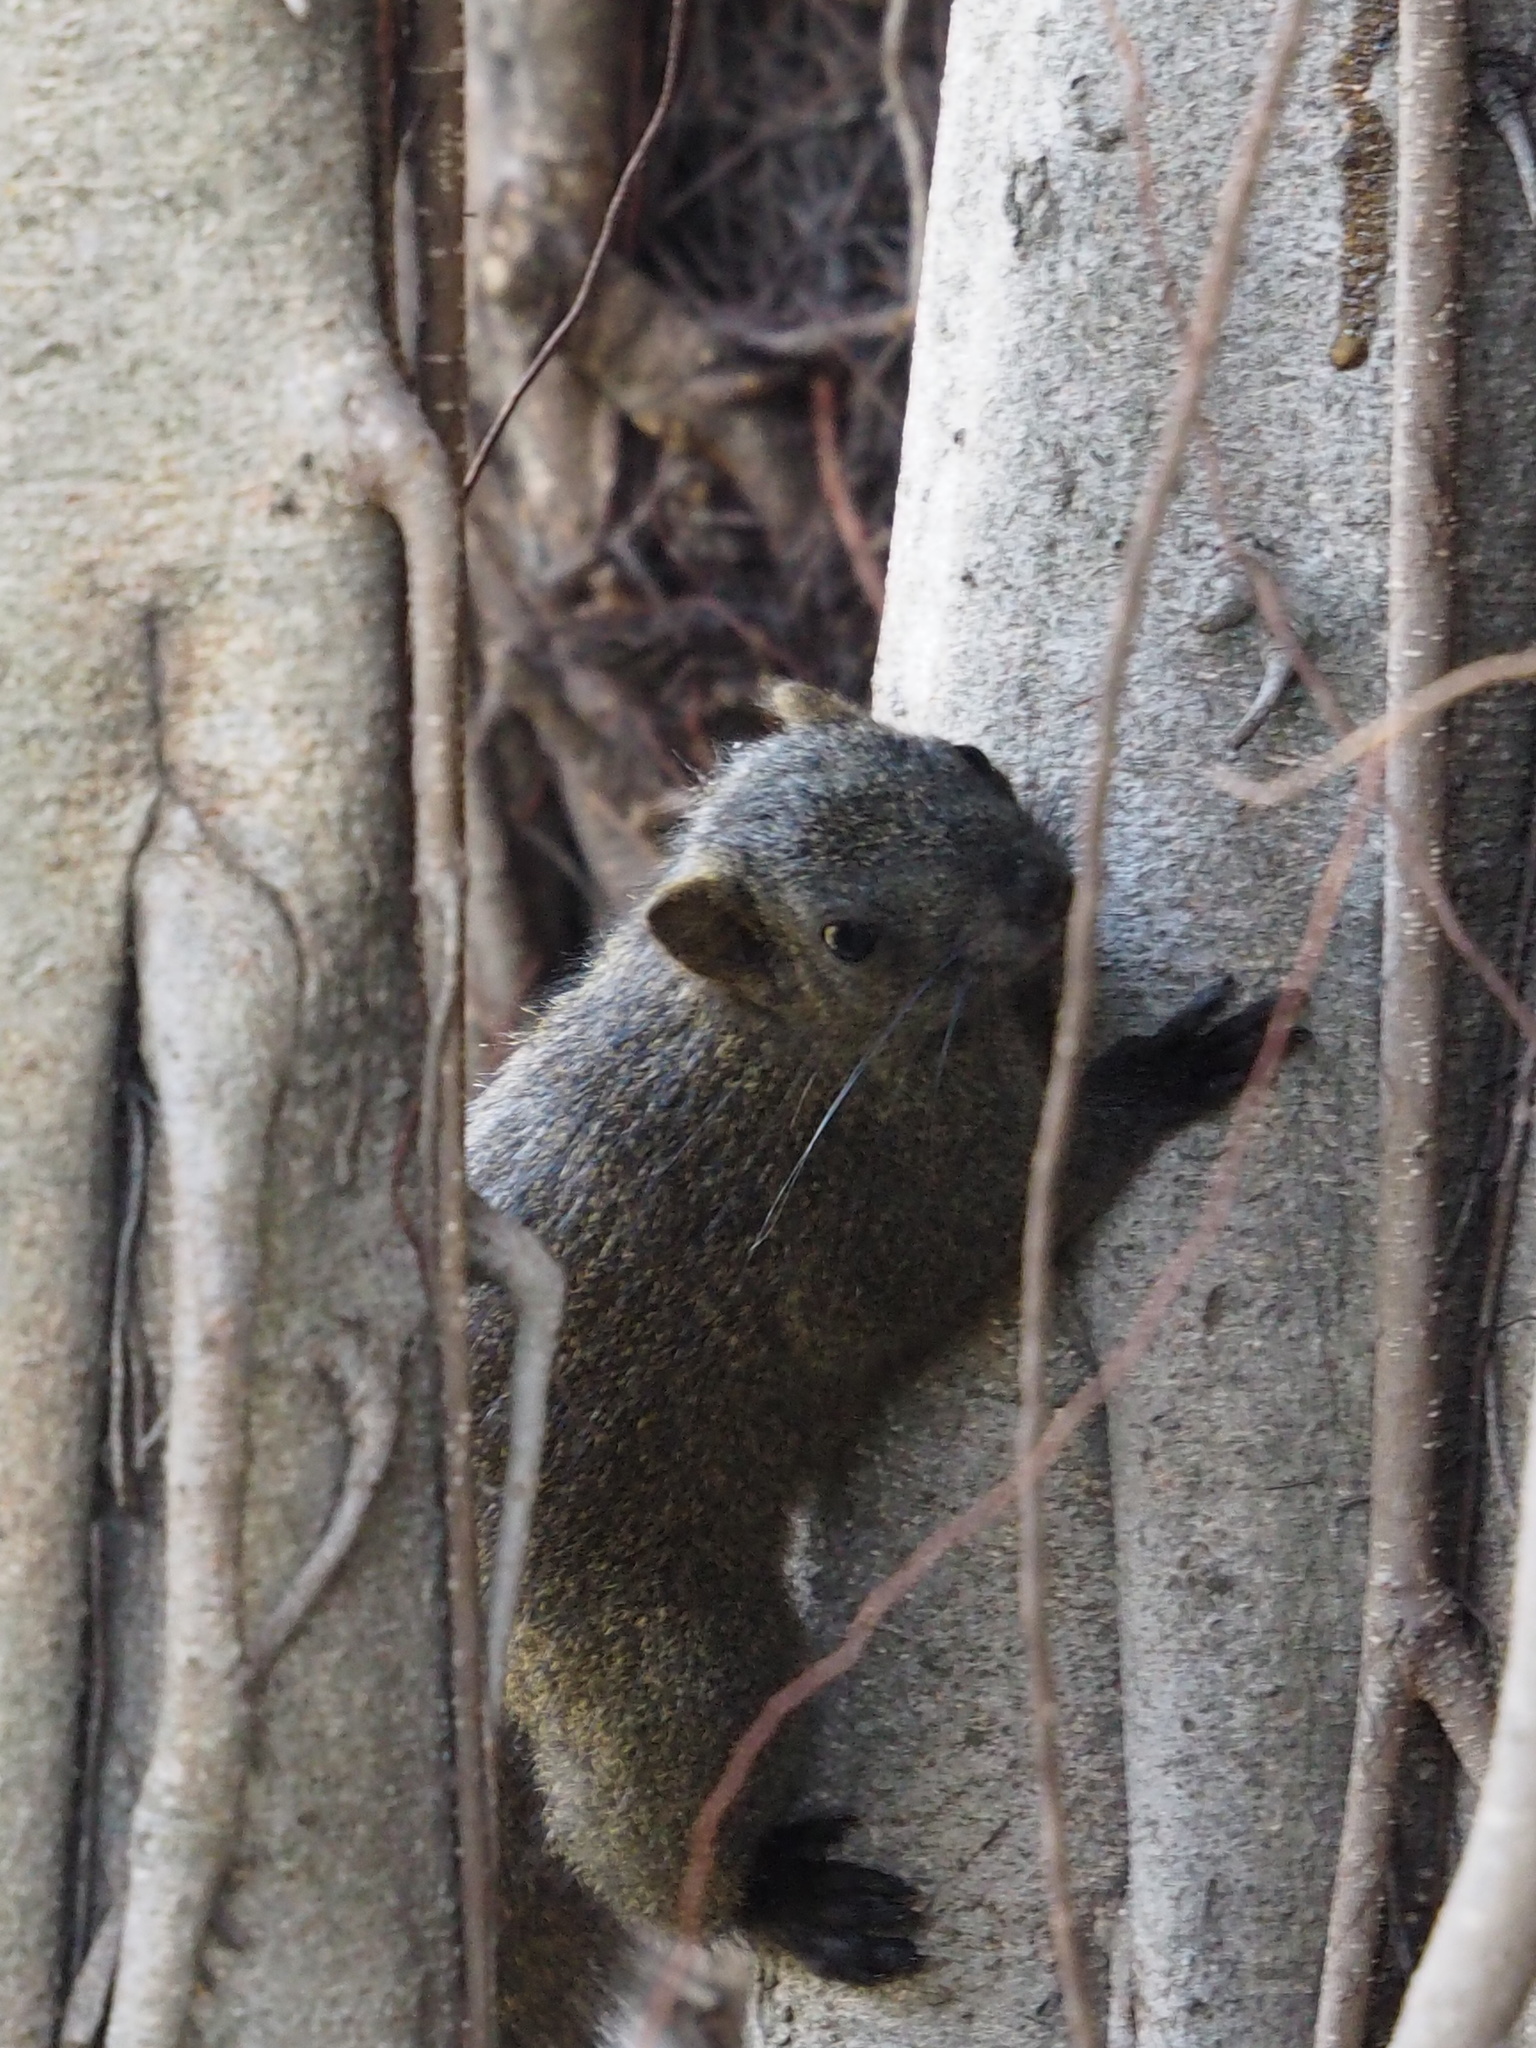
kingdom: Animalia
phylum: Chordata
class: Mammalia
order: Rodentia
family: Sciuridae
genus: Callosciurus
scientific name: Callosciurus erythraeus
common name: Pallas's squirrel
